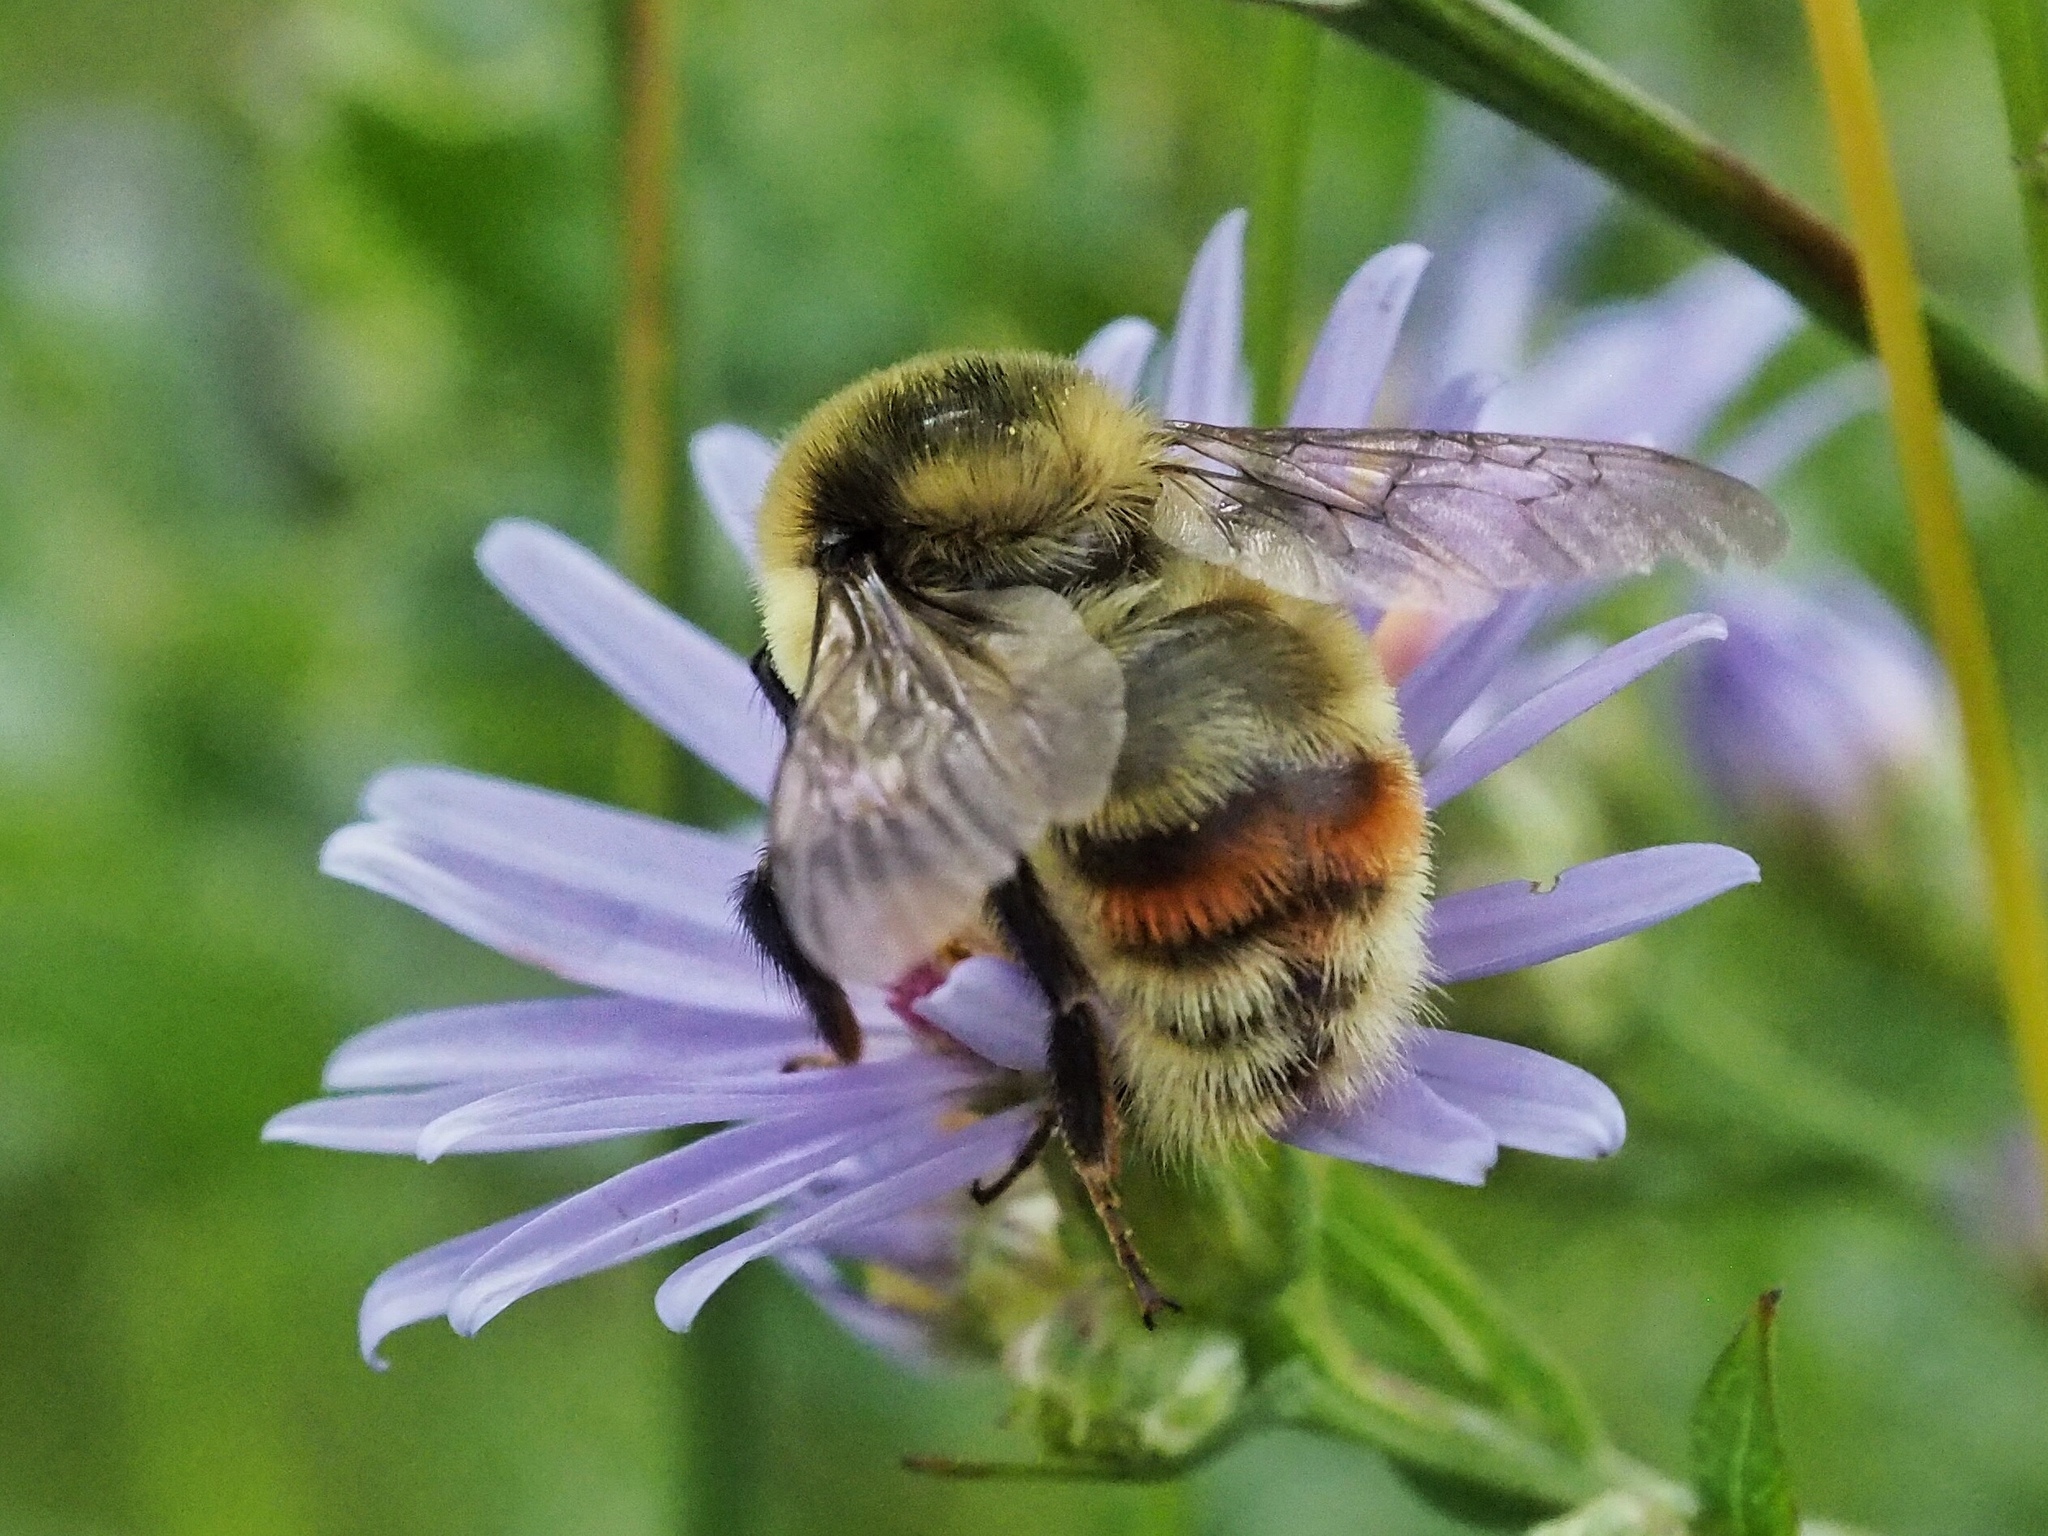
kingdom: Animalia
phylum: Arthropoda
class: Insecta
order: Hymenoptera
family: Apidae
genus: Bombus
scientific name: Bombus rufocinctus
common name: Red-belted bumble bee
